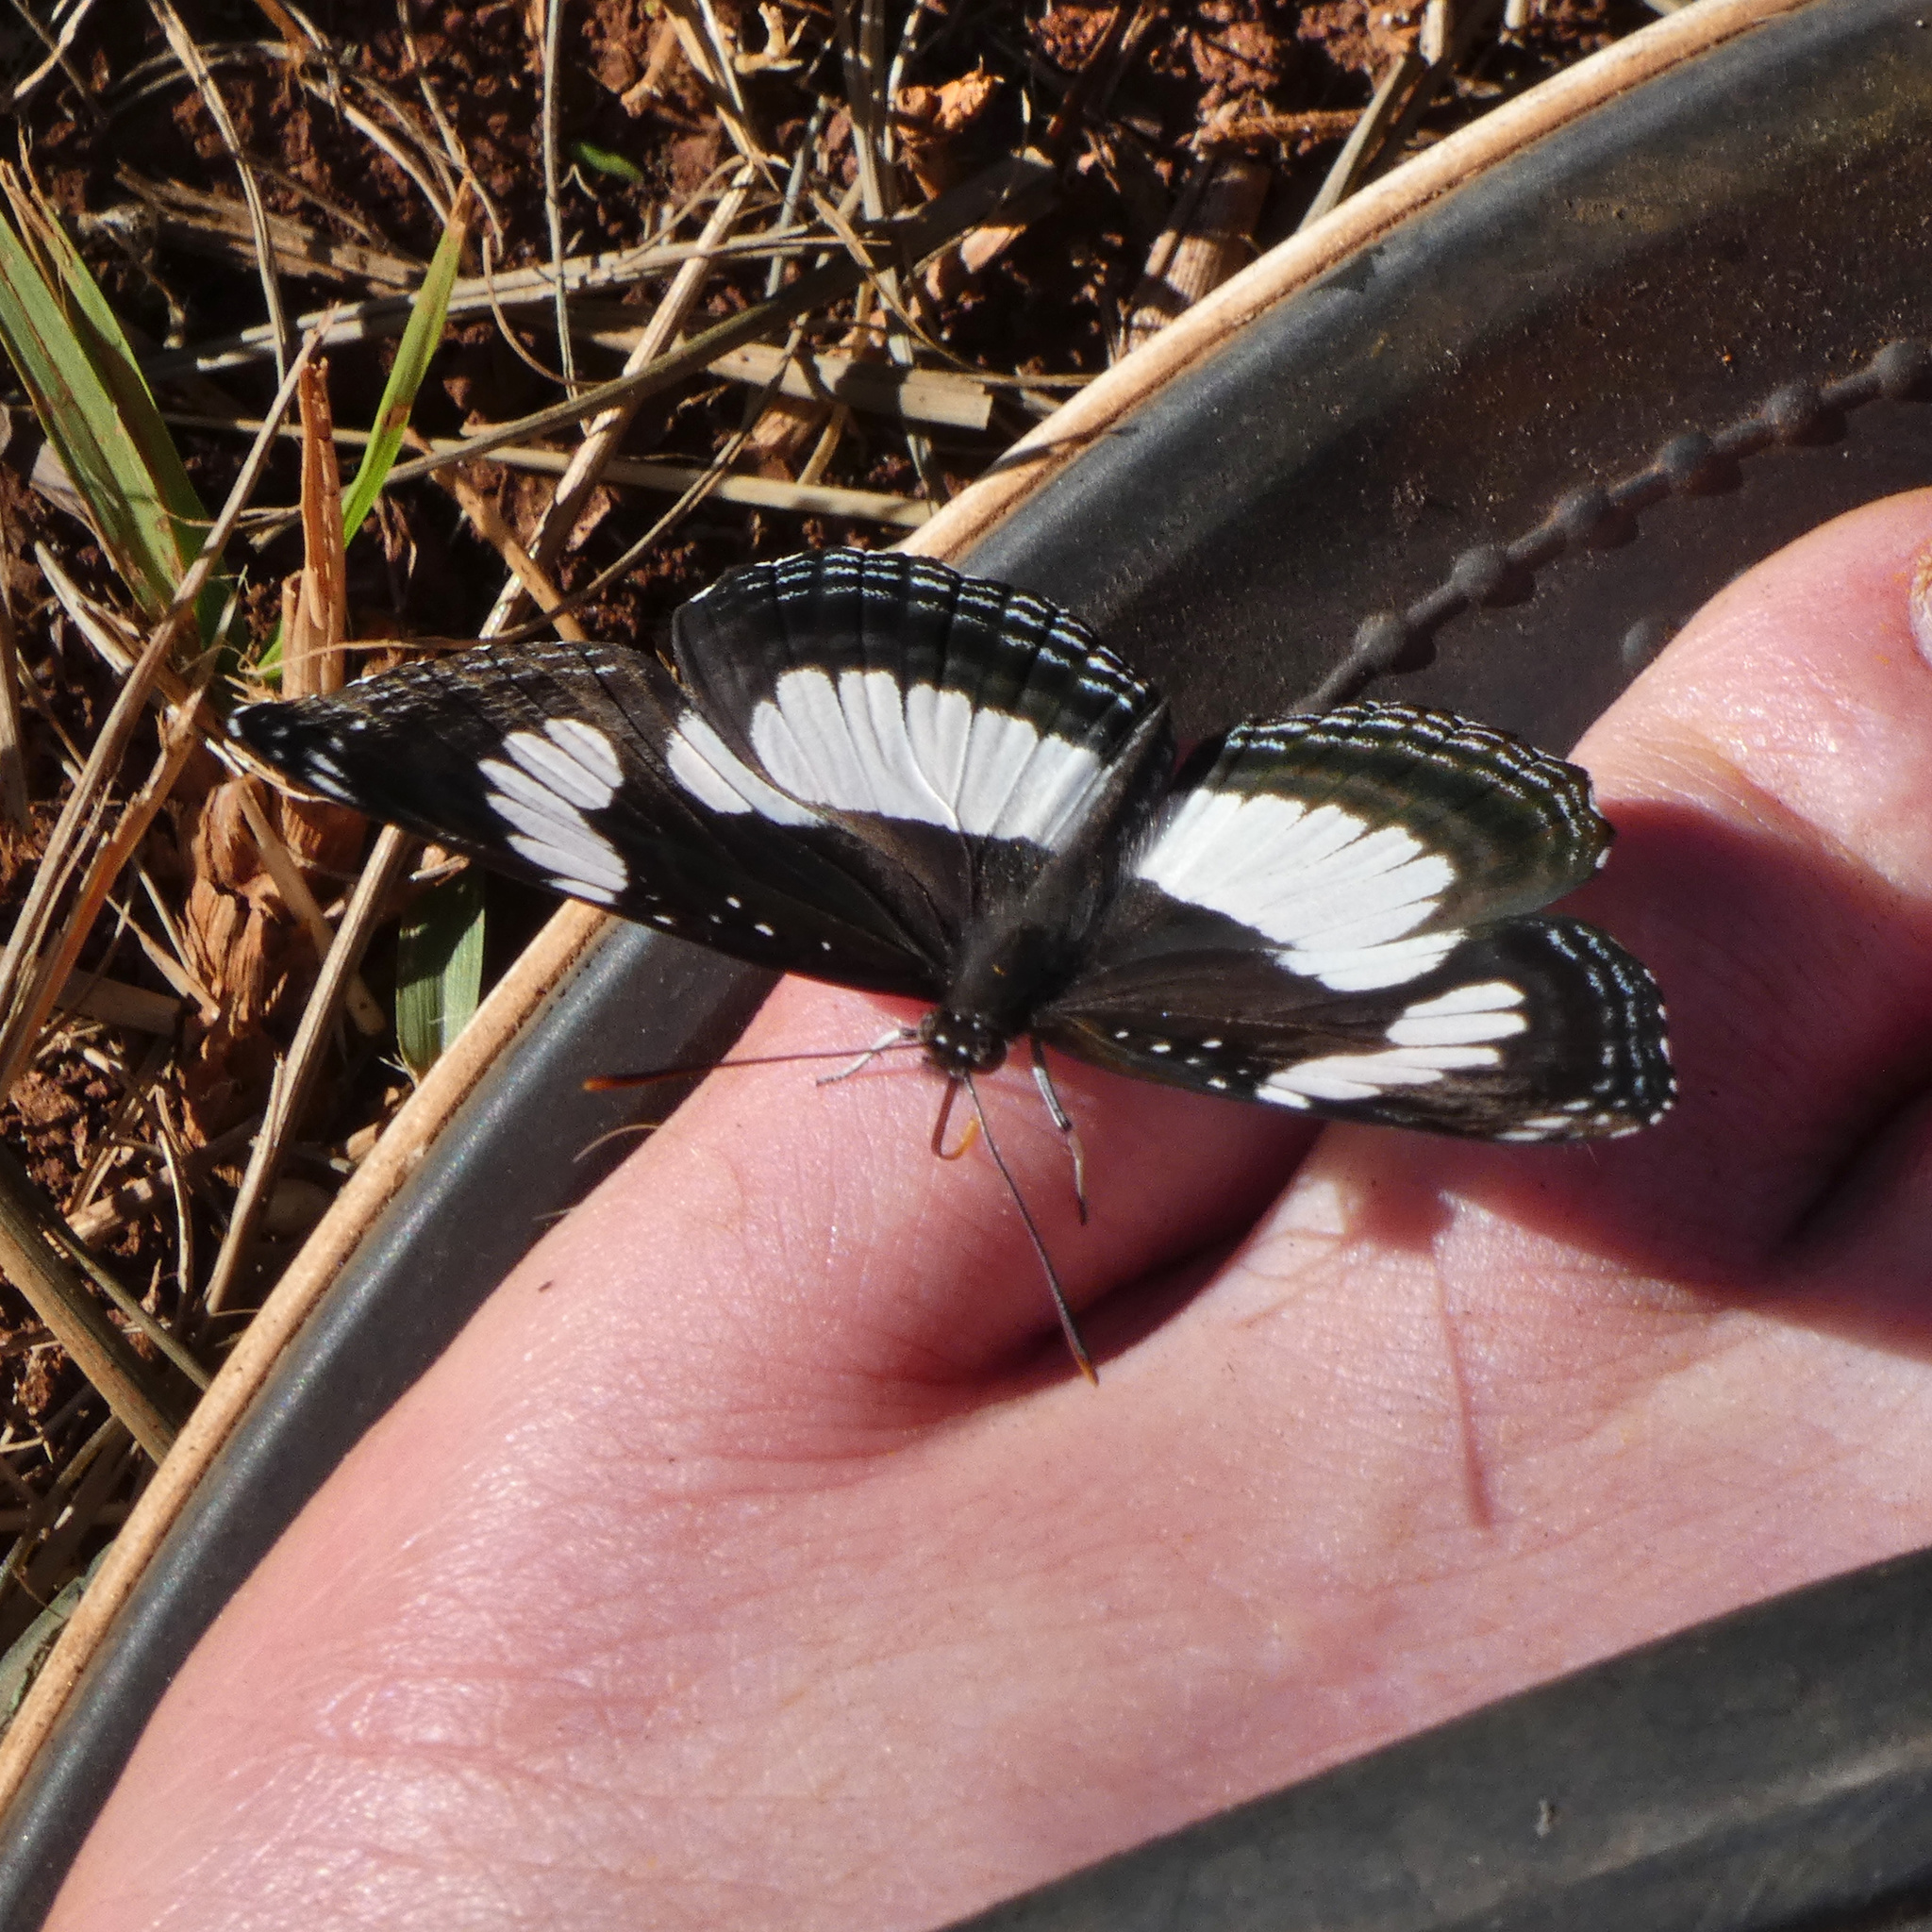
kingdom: Animalia
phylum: Arthropoda
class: Insecta
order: Lepidoptera
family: Nymphalidae
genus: Neptis
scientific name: Neptis laeta
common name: Common barred sailor
